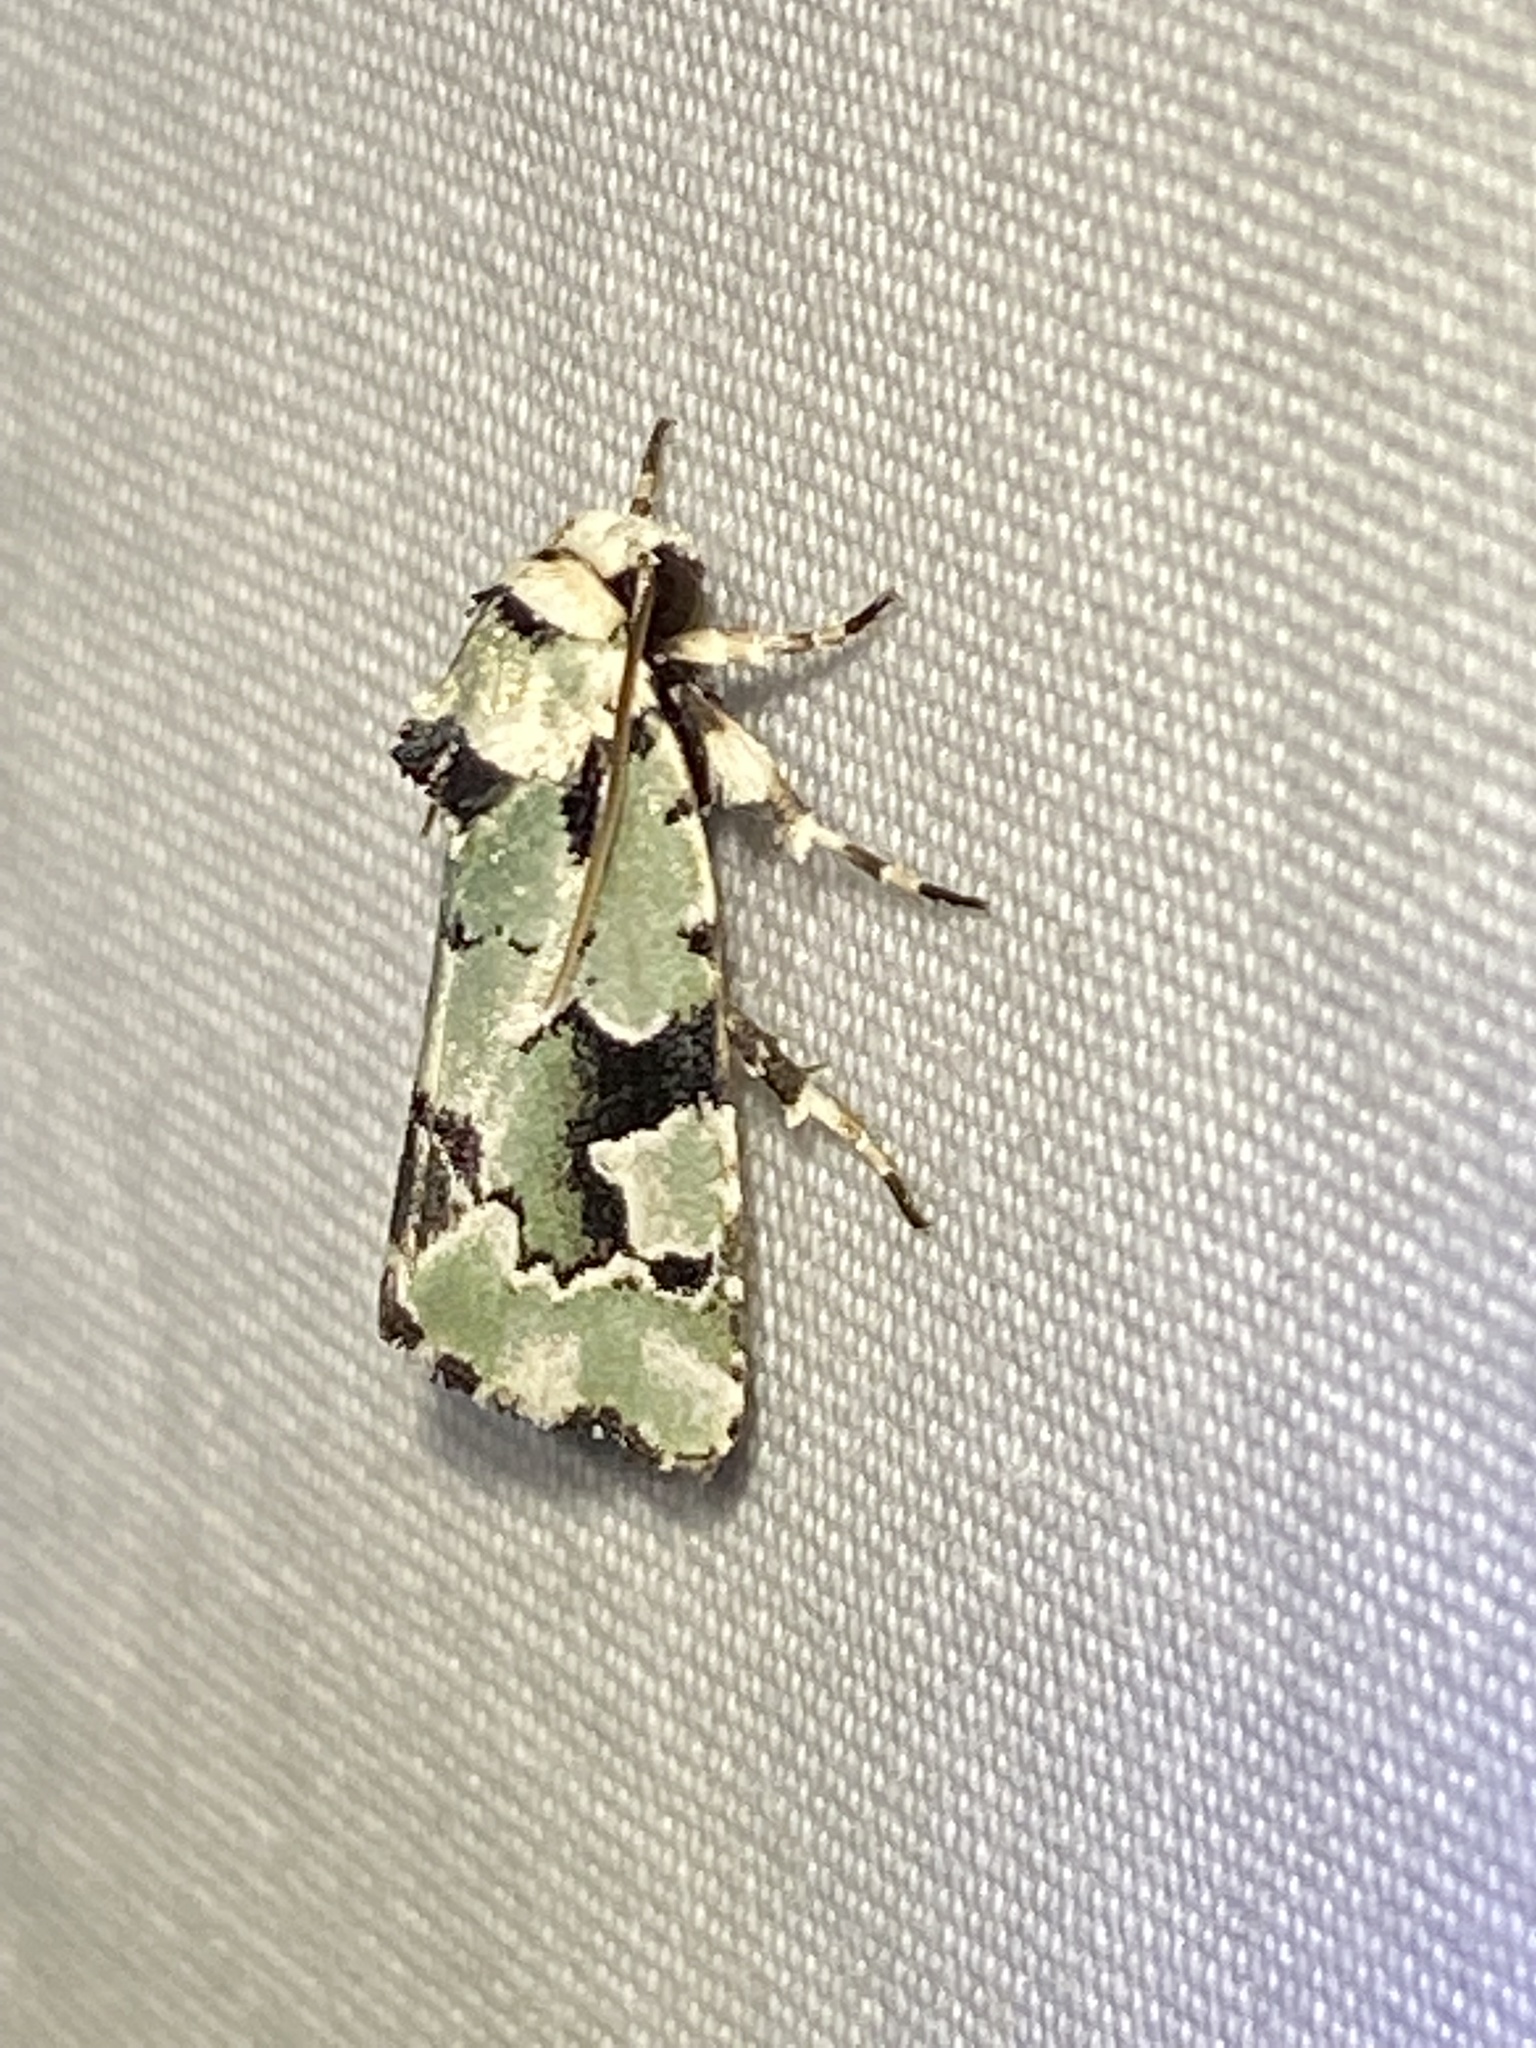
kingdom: Animalia
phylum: Arthropoda
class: Insecta
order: Lepidoptera
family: Noctuidae
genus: Emarginea
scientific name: Emarginea percara
